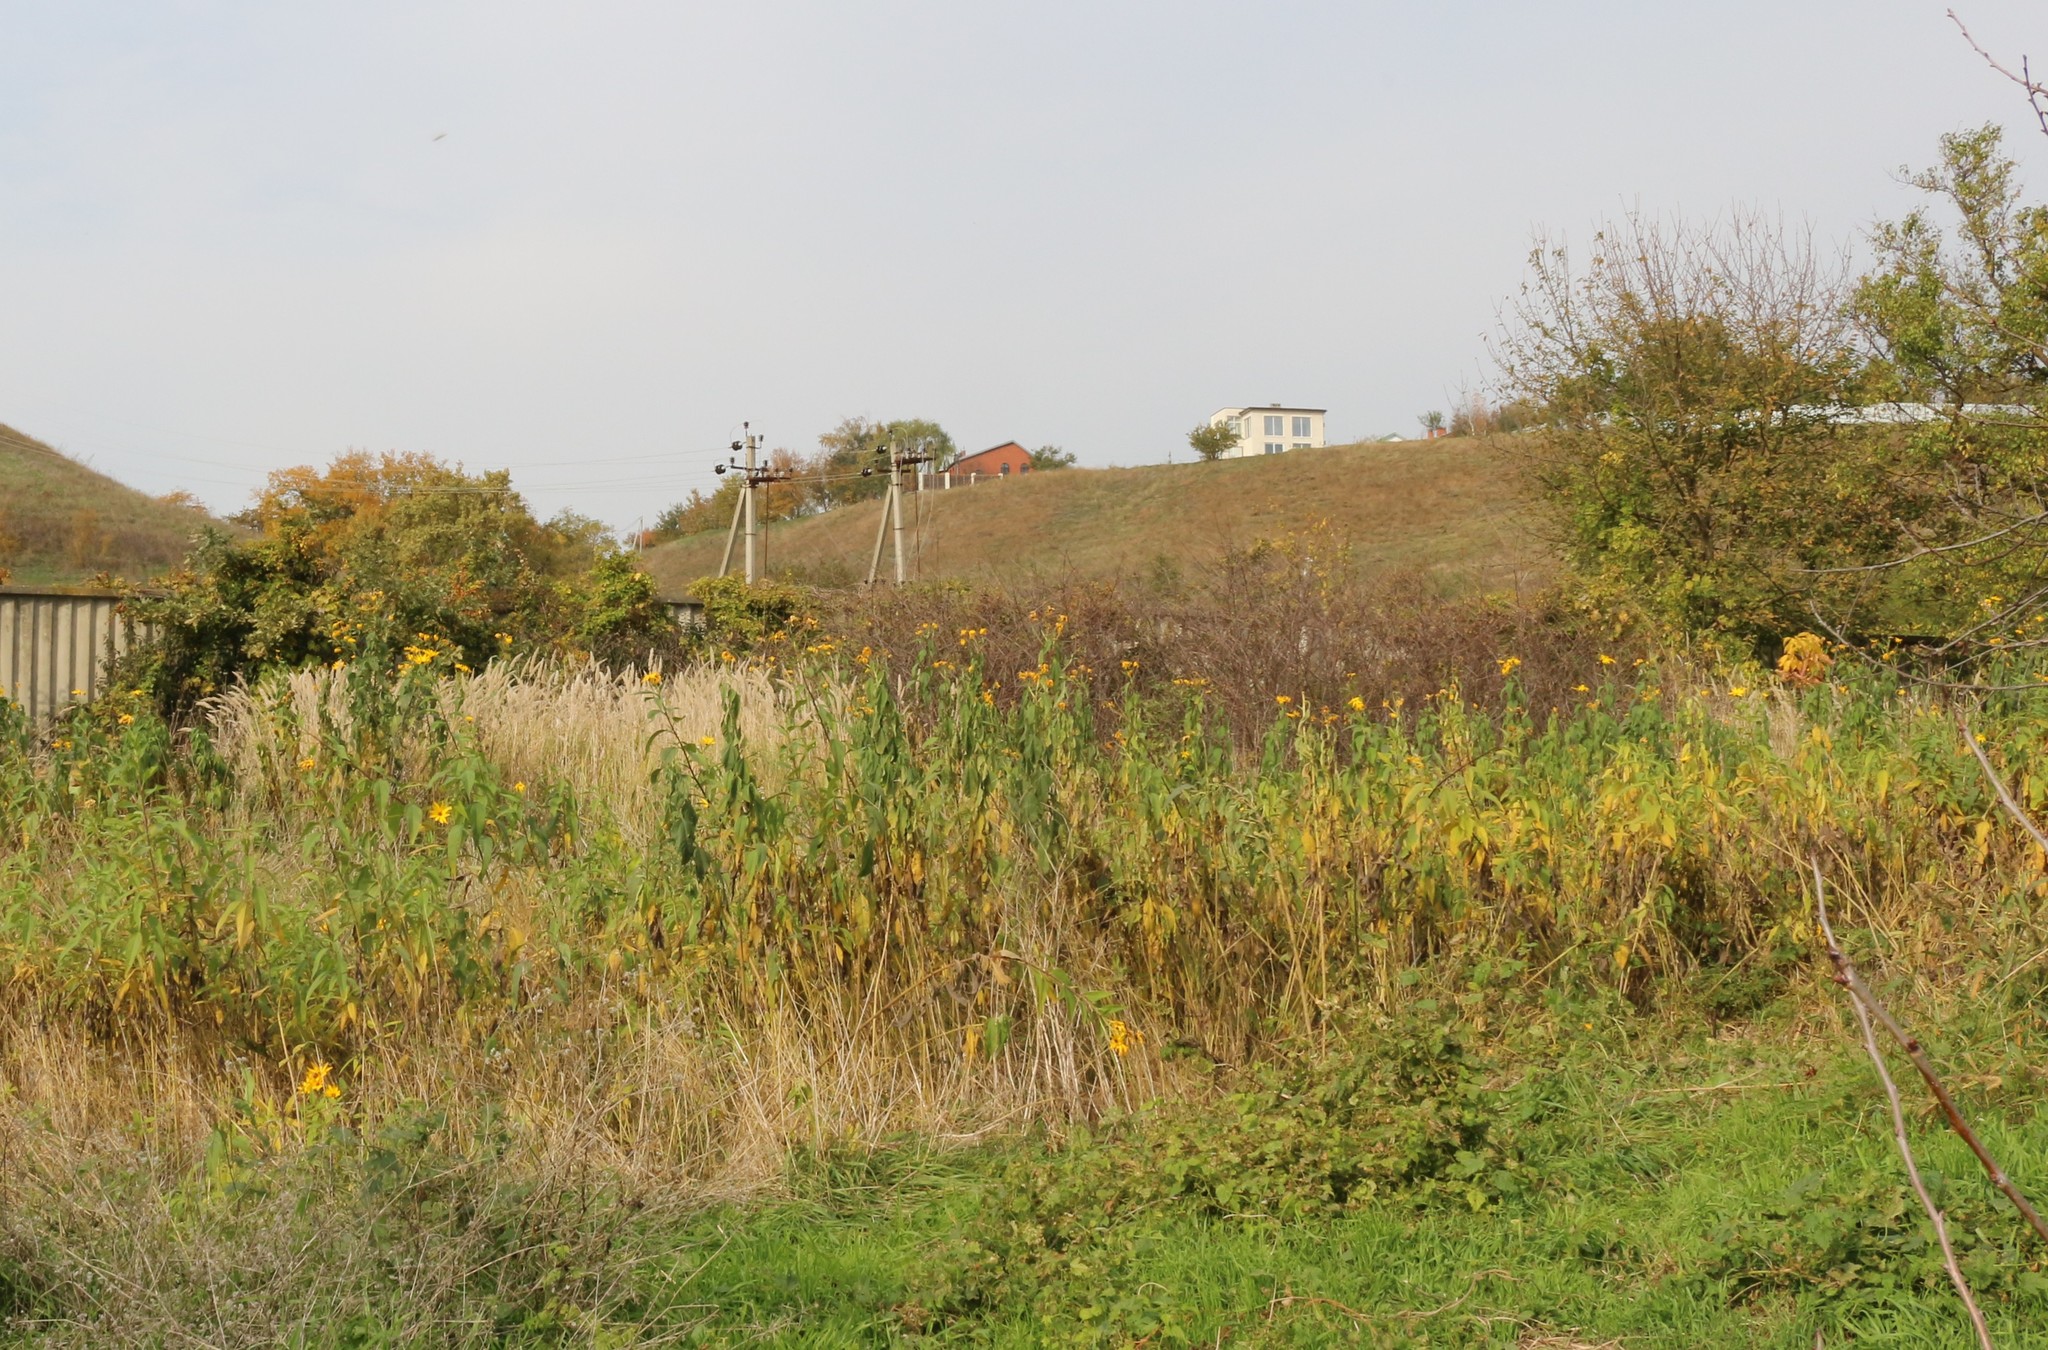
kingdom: Plantae
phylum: Tracheophyta
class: Magnoliopsida
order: Asterales
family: Asteraceae
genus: Helianthus
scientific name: Helianthus tuberosus
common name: Jerusalem artichoke
